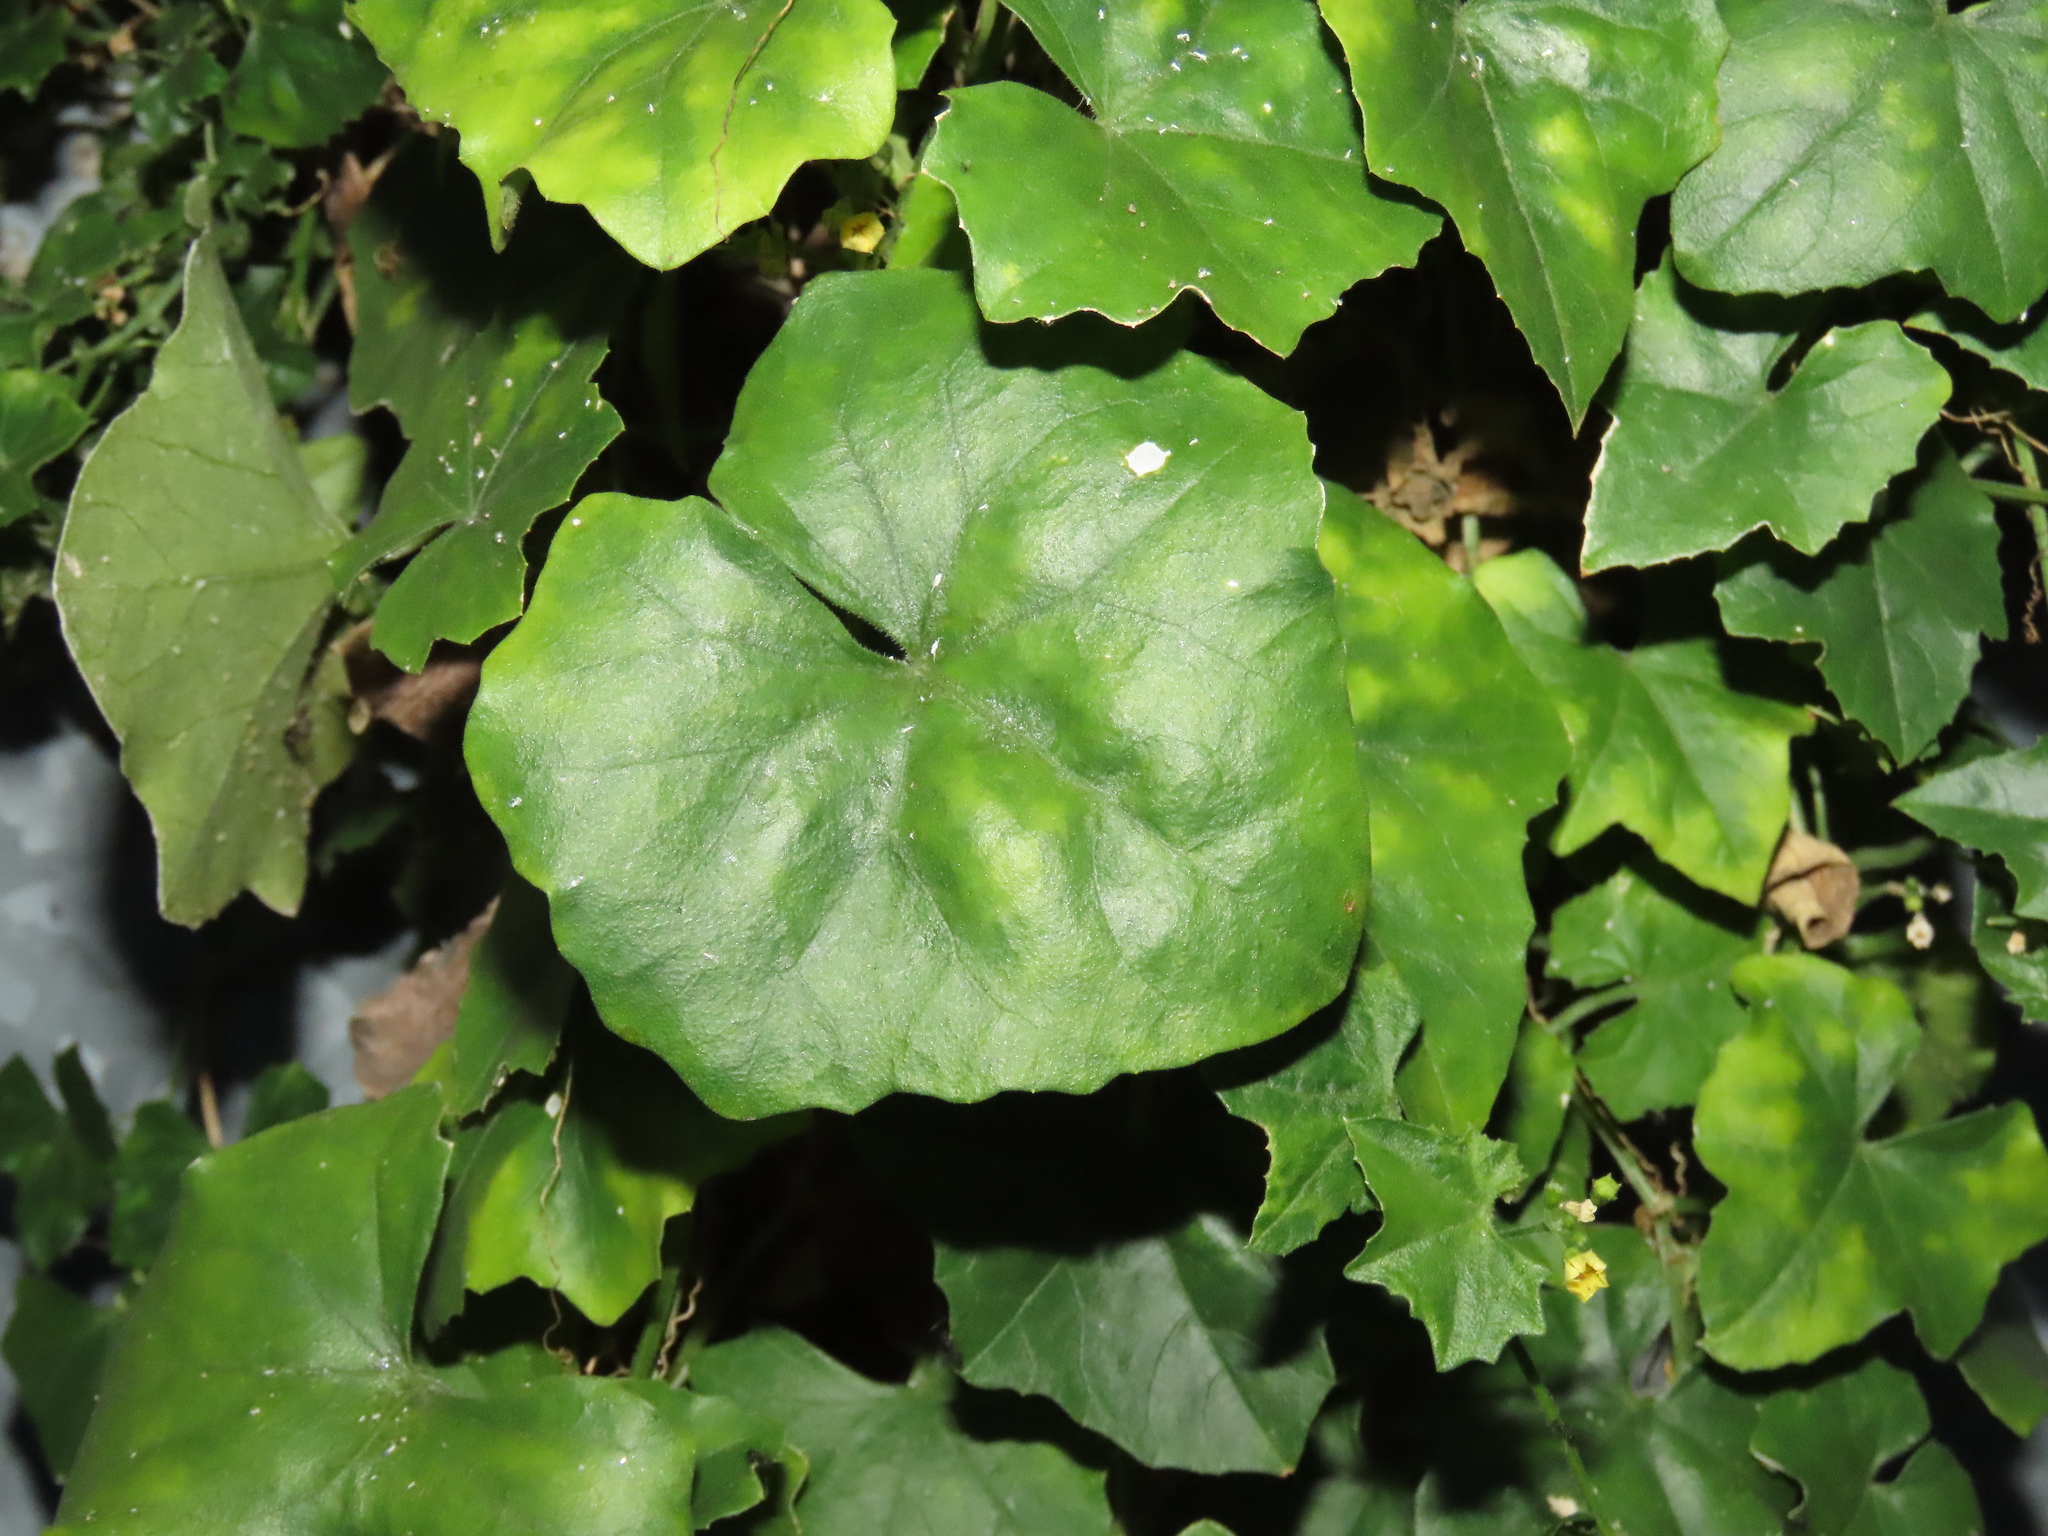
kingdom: Plantae
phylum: Tracheophyta
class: Magnoliopsida
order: Cucurbitales
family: Cucurbitaceae
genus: Melothria
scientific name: Melothria pendula
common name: Creeping-cucumber
